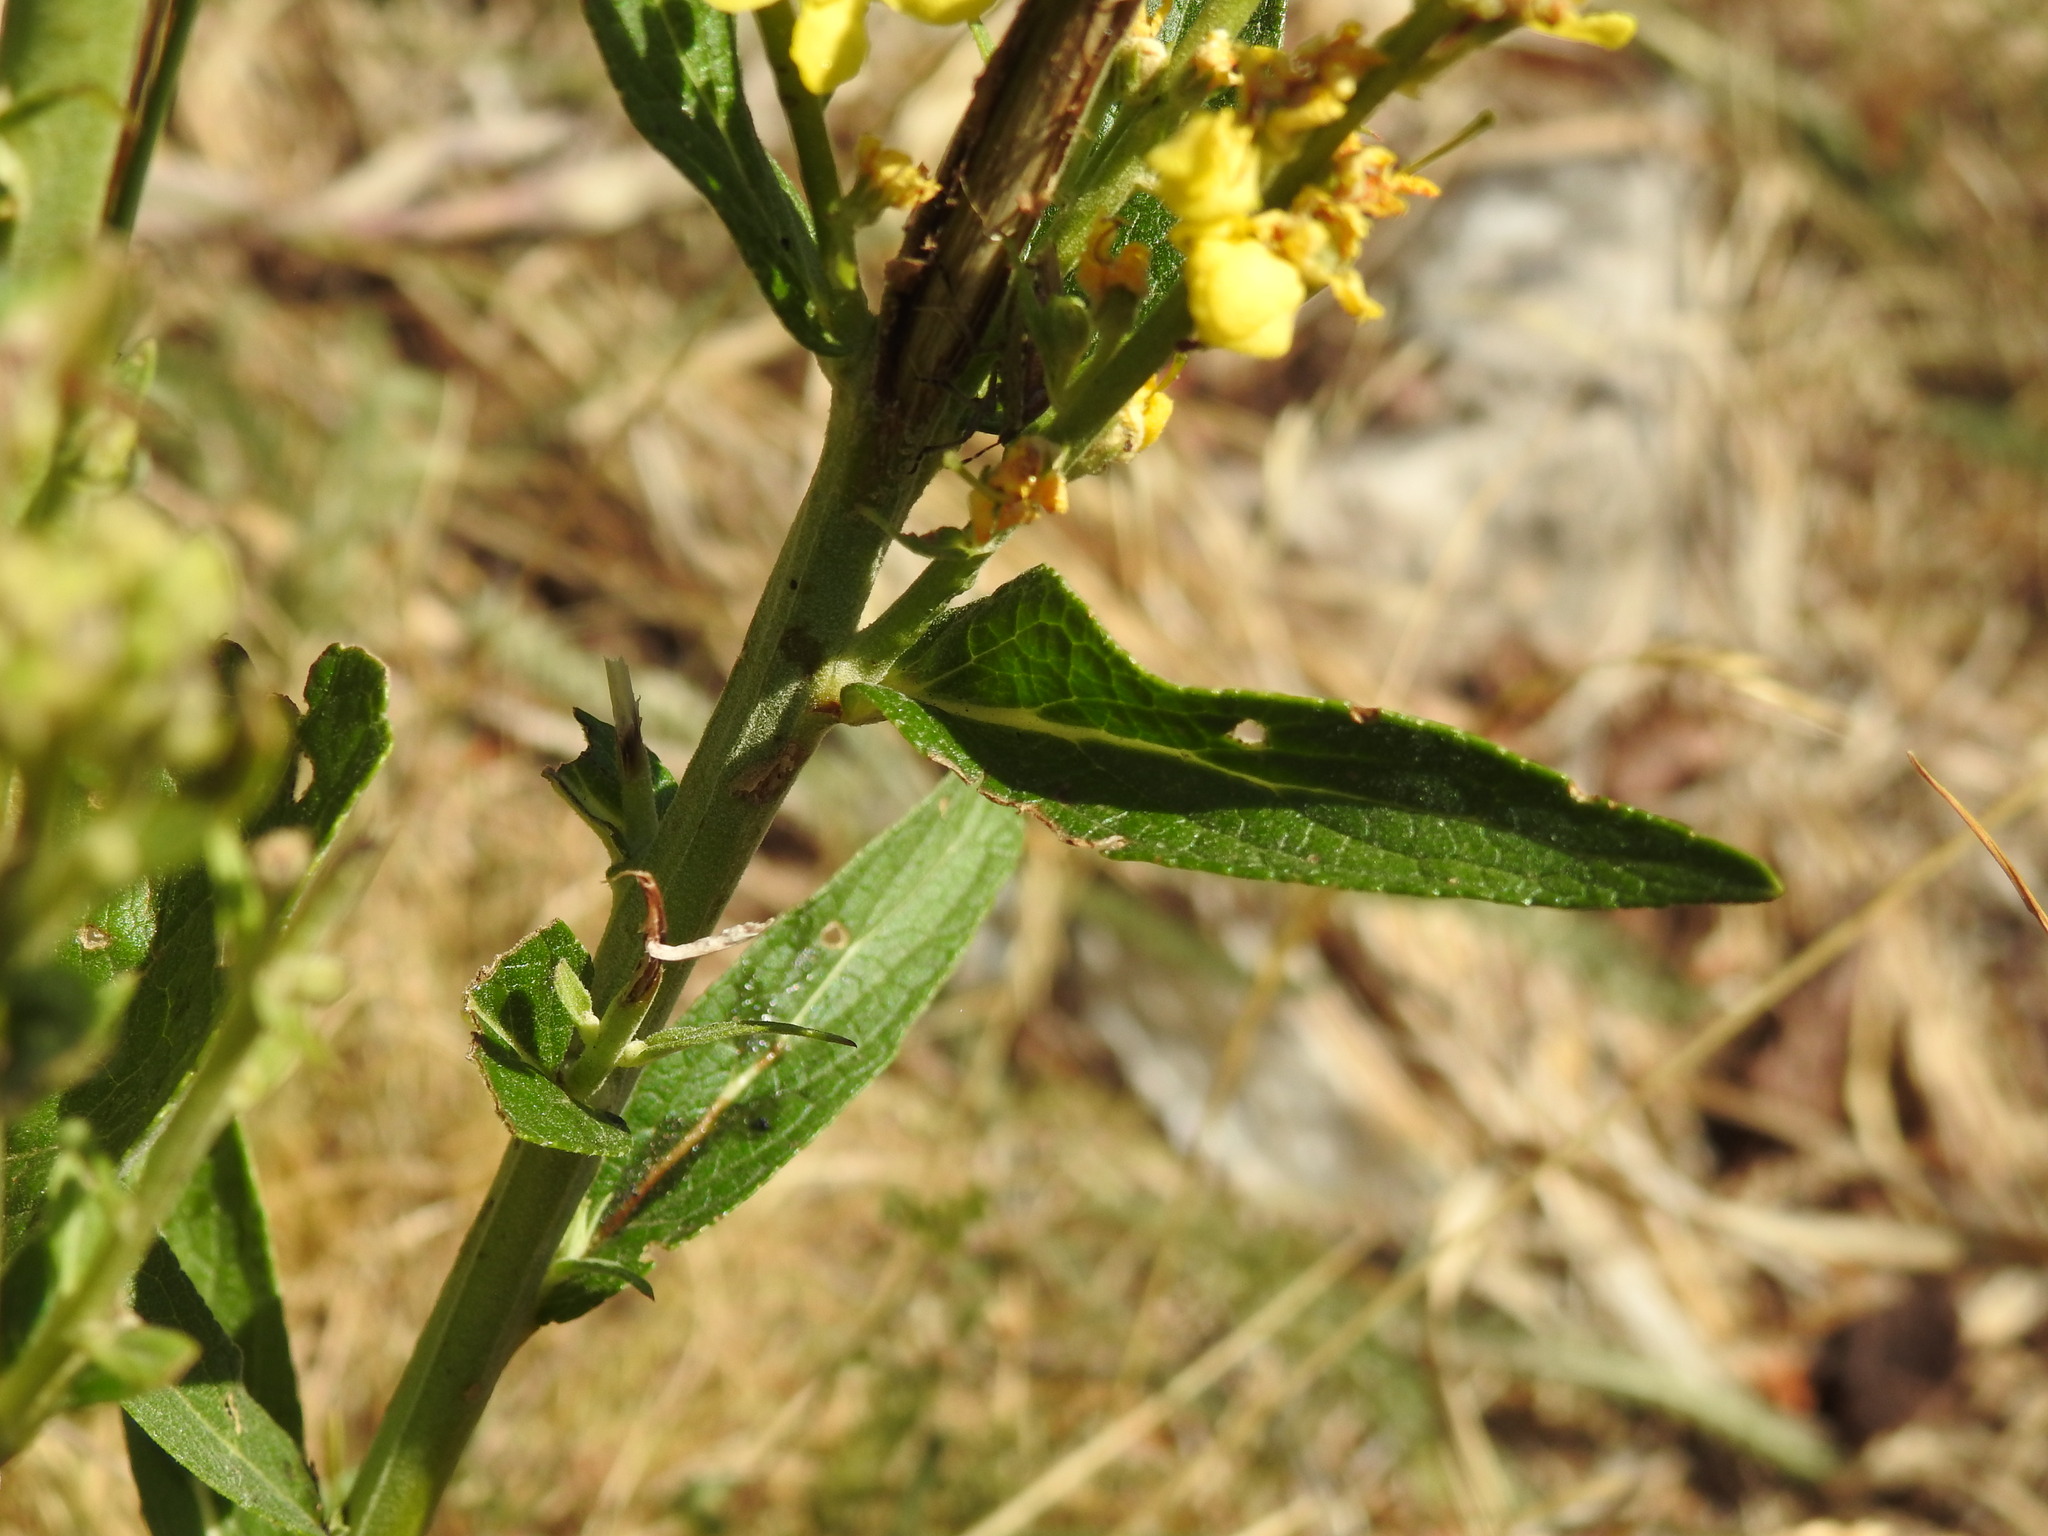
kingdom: Plantae
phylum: Tracheophyta
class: Magnoliopsida
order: Lamiales
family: Scrophulariaceae
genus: Verbascum
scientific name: Verbascum lychnitis
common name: White mullein
